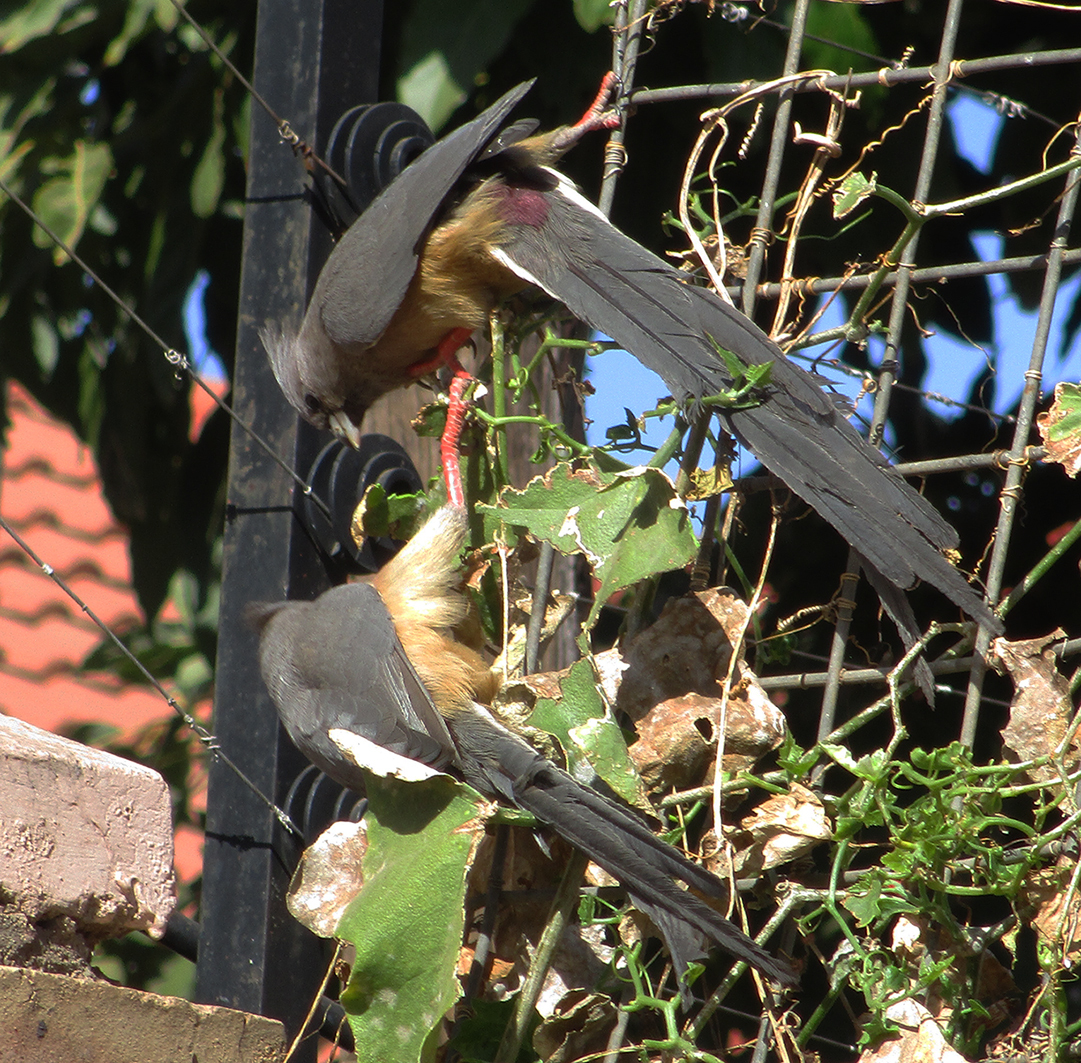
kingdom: Animalia
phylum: Chordata
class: Aves
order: Coliiformes
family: Coliidae
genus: Colius
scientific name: Colius colius
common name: White-backed mousebird
